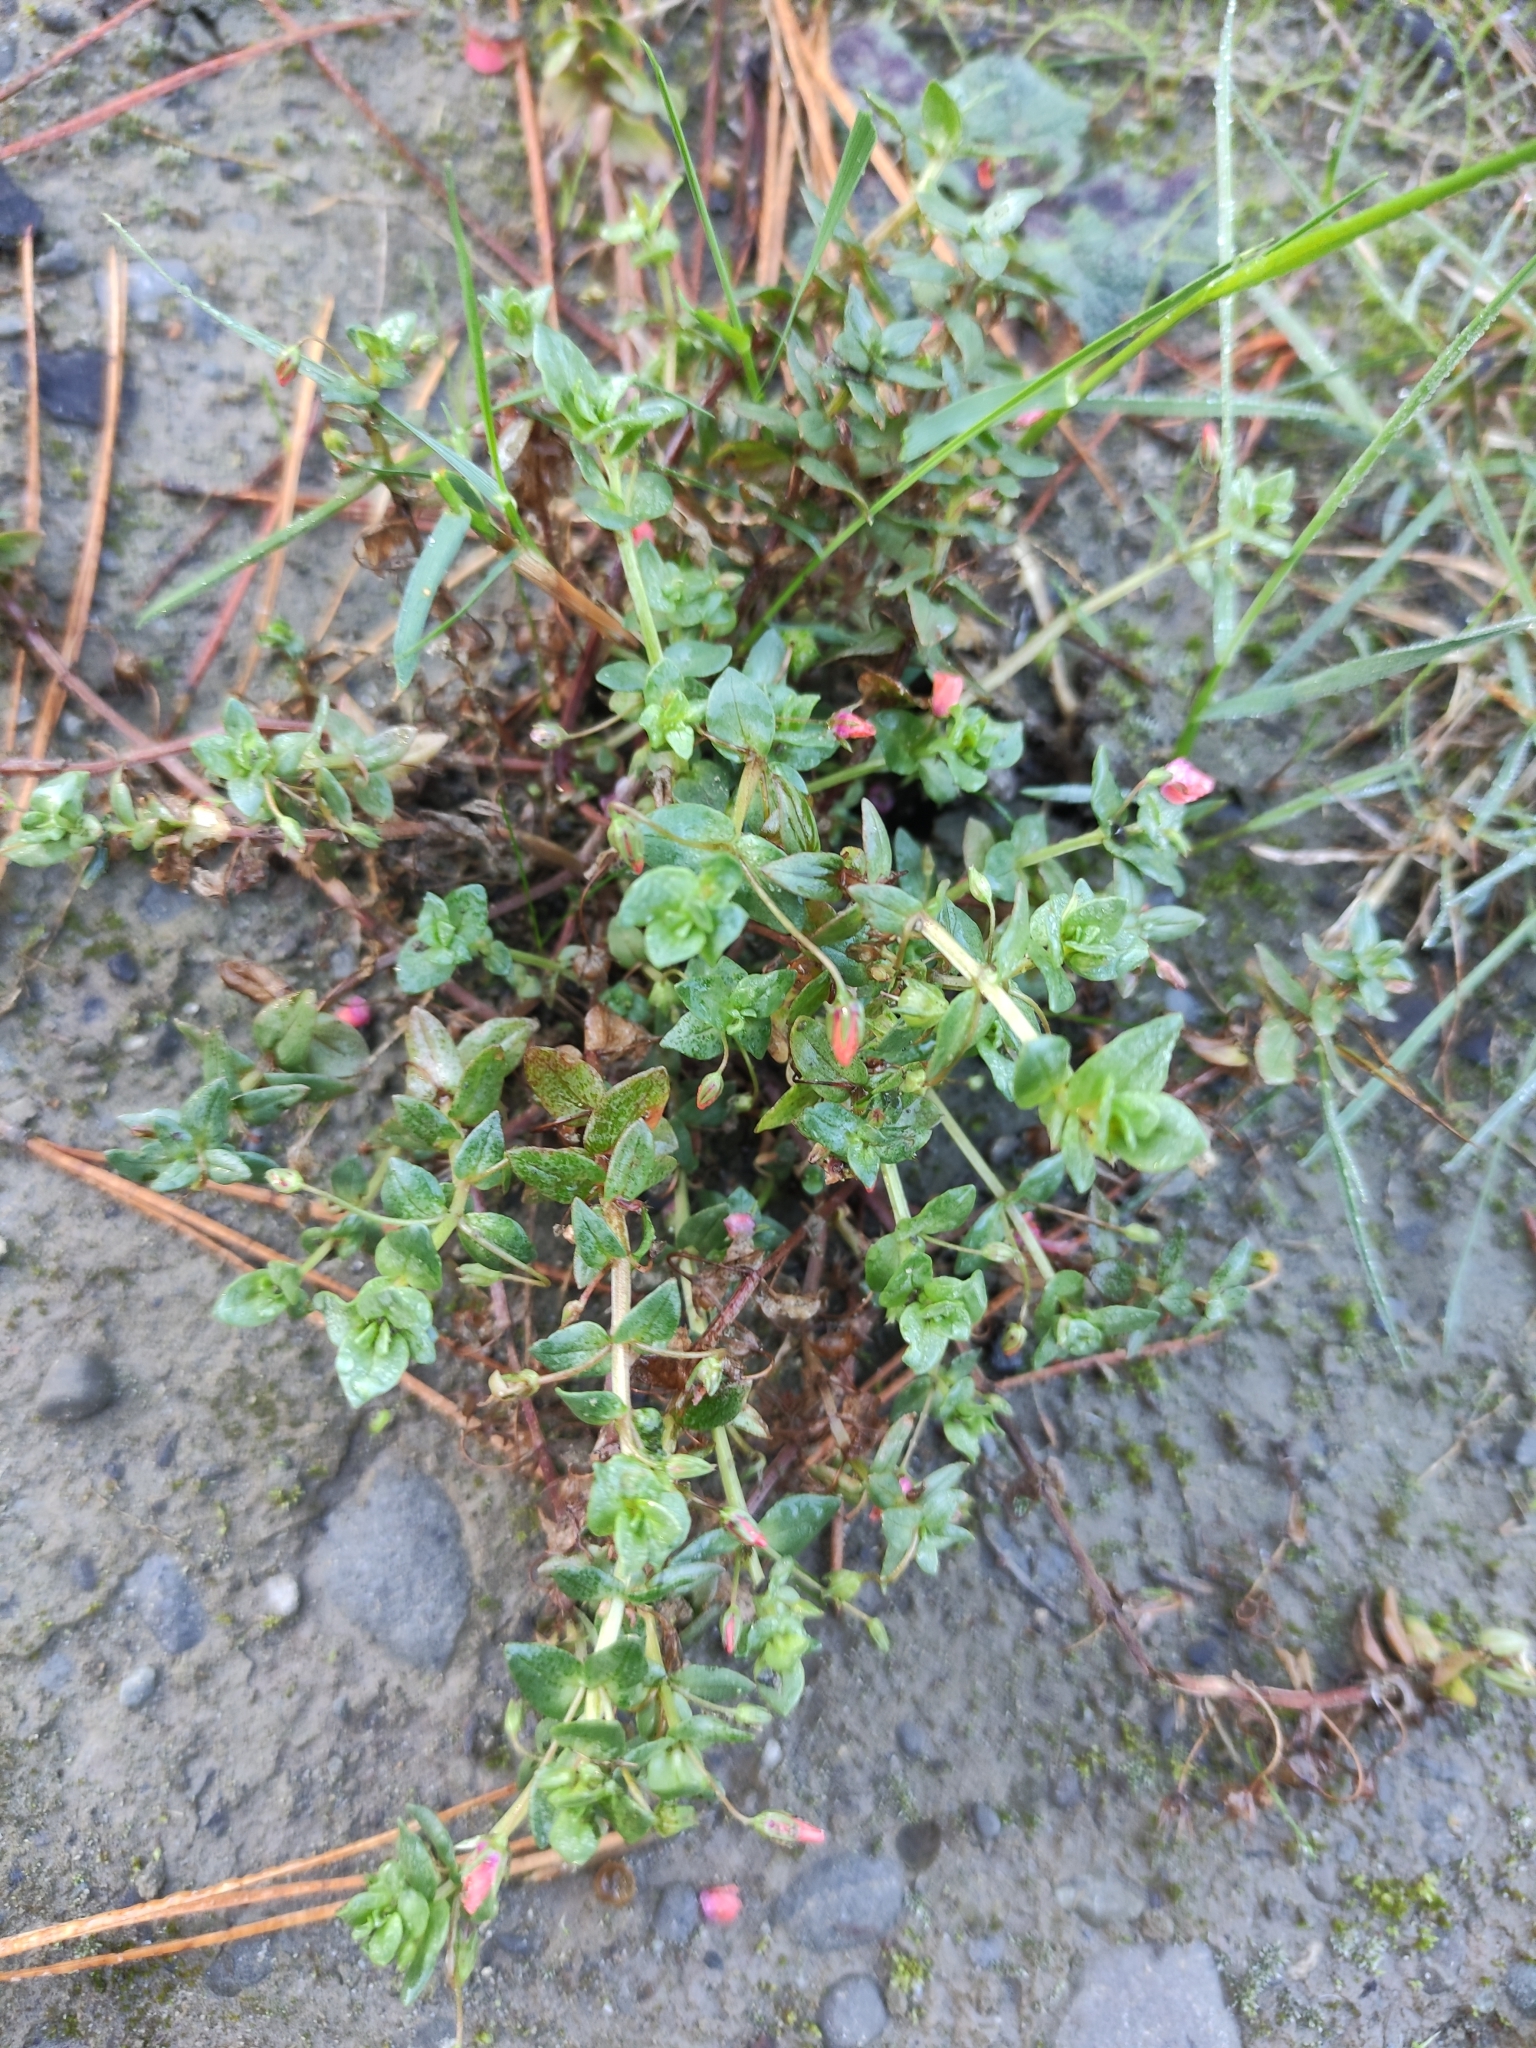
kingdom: Plantae
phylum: Tracheophyta
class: Magnoliopsida
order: Ericales
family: Primulaceae
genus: Lysimachia
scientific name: Lysimachia arvensis
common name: Scarlet pimpernel
